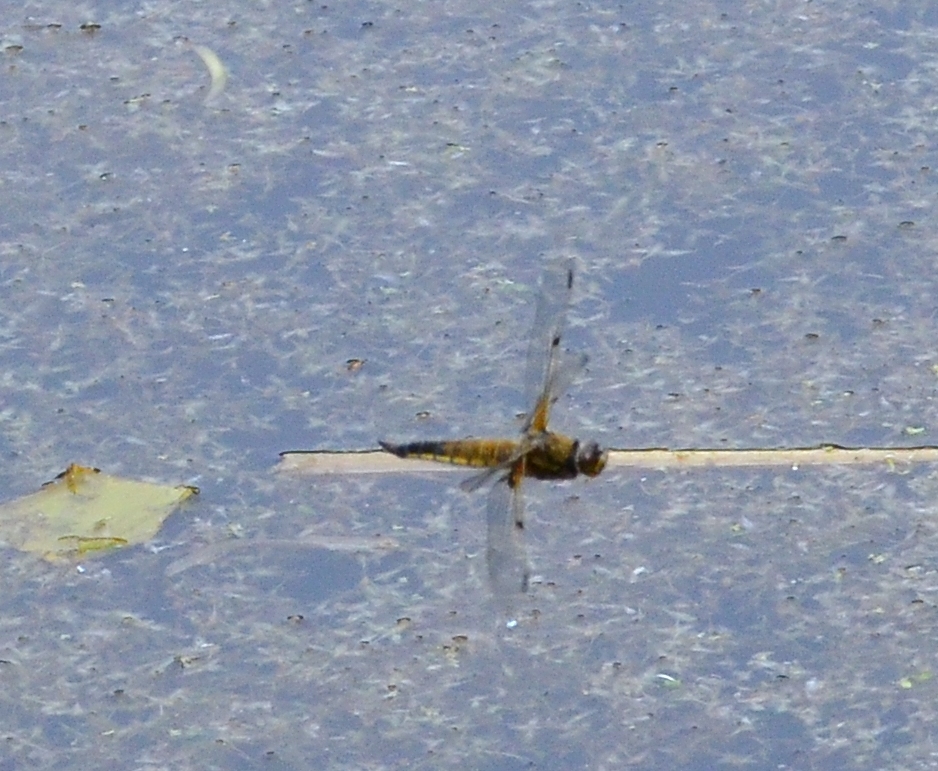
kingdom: Animalia
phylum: Arthropoda
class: Insecta
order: Odonata
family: Libellulidae
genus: Libellula
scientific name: Libellula quadrimaculata
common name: Four-spotted chaser
